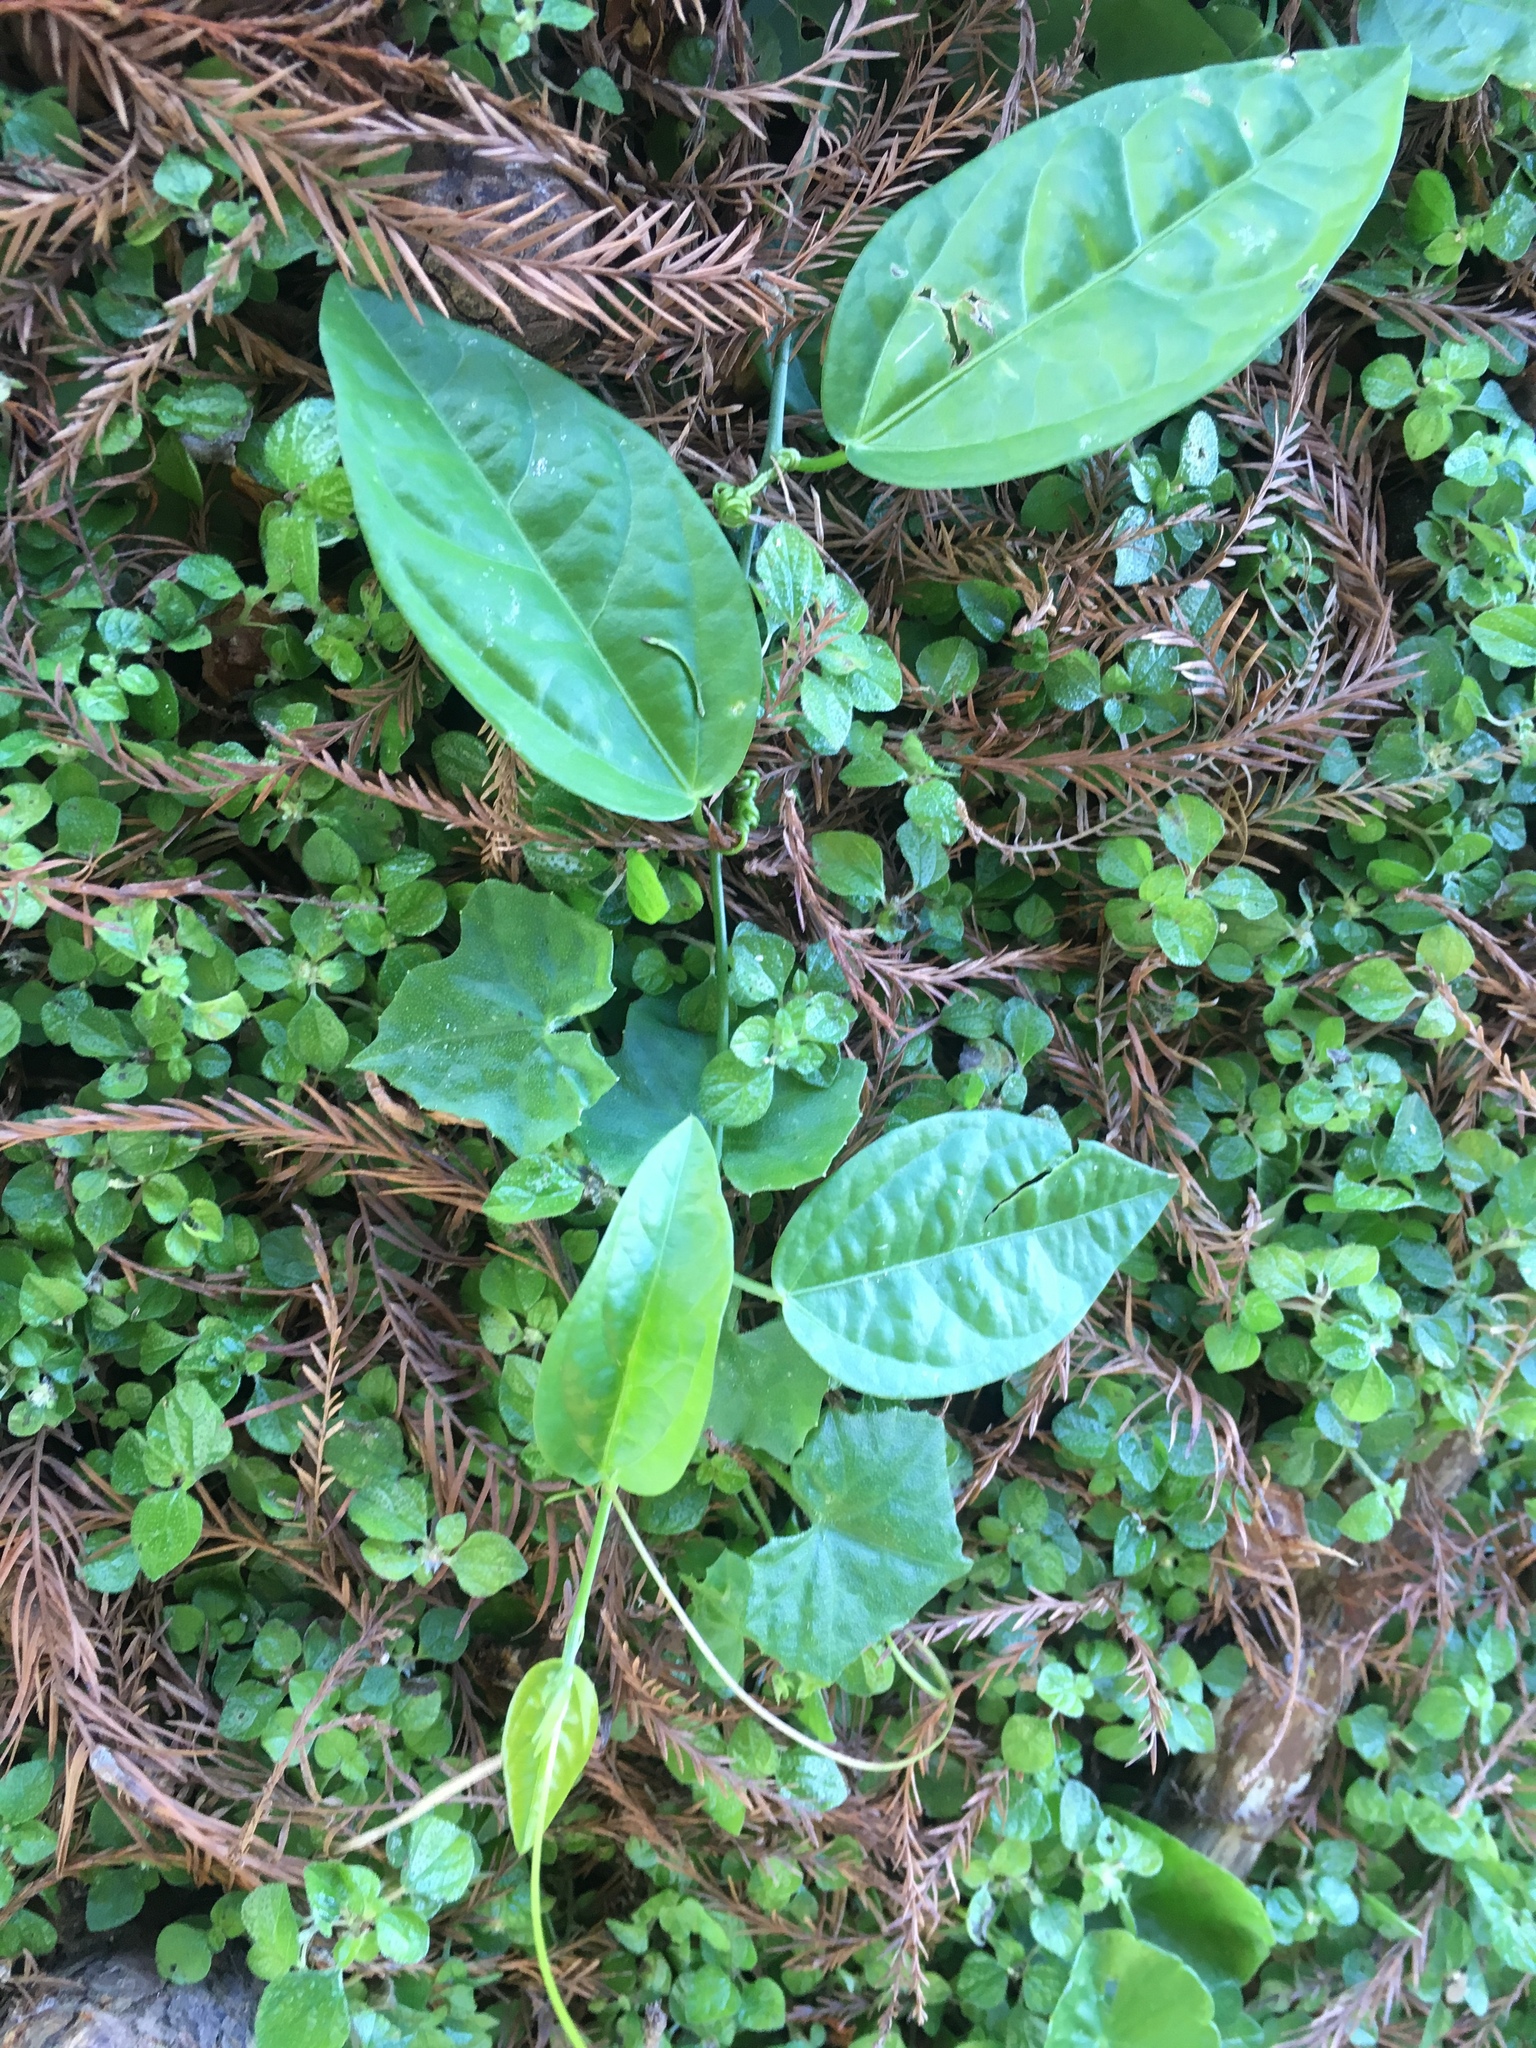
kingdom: Plantae
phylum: Tracheophyta
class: Magnoliopsida
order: Malpighiales
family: Passifloraceae
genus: Passiflora
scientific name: Passiflora pallida
